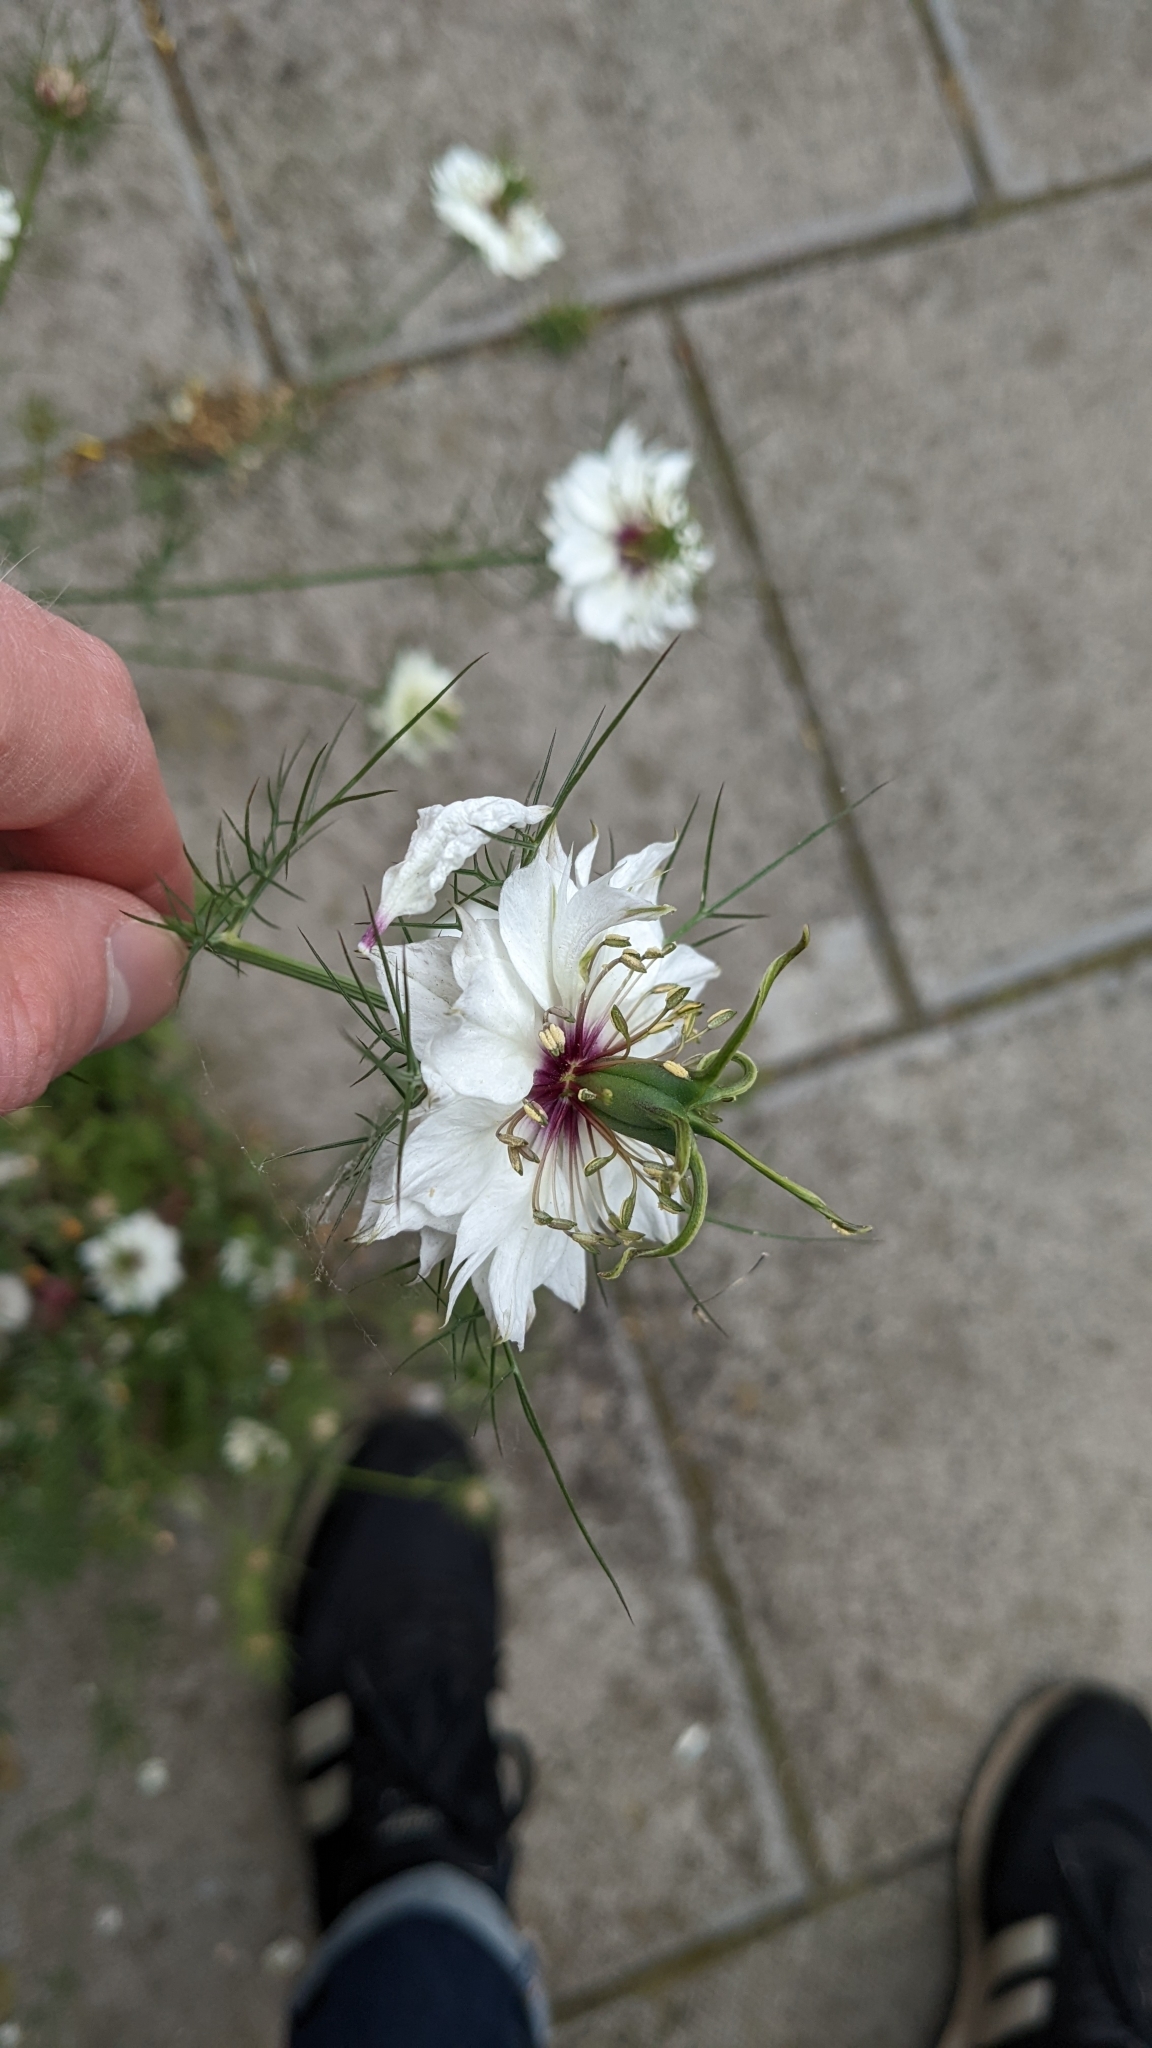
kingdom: Plantae
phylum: Tracheophyta
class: Magnoliopsida
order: Ranunculales
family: Ranunculaceae
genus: Nigella
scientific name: Nigella damascena
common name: Love-in-a-mist
